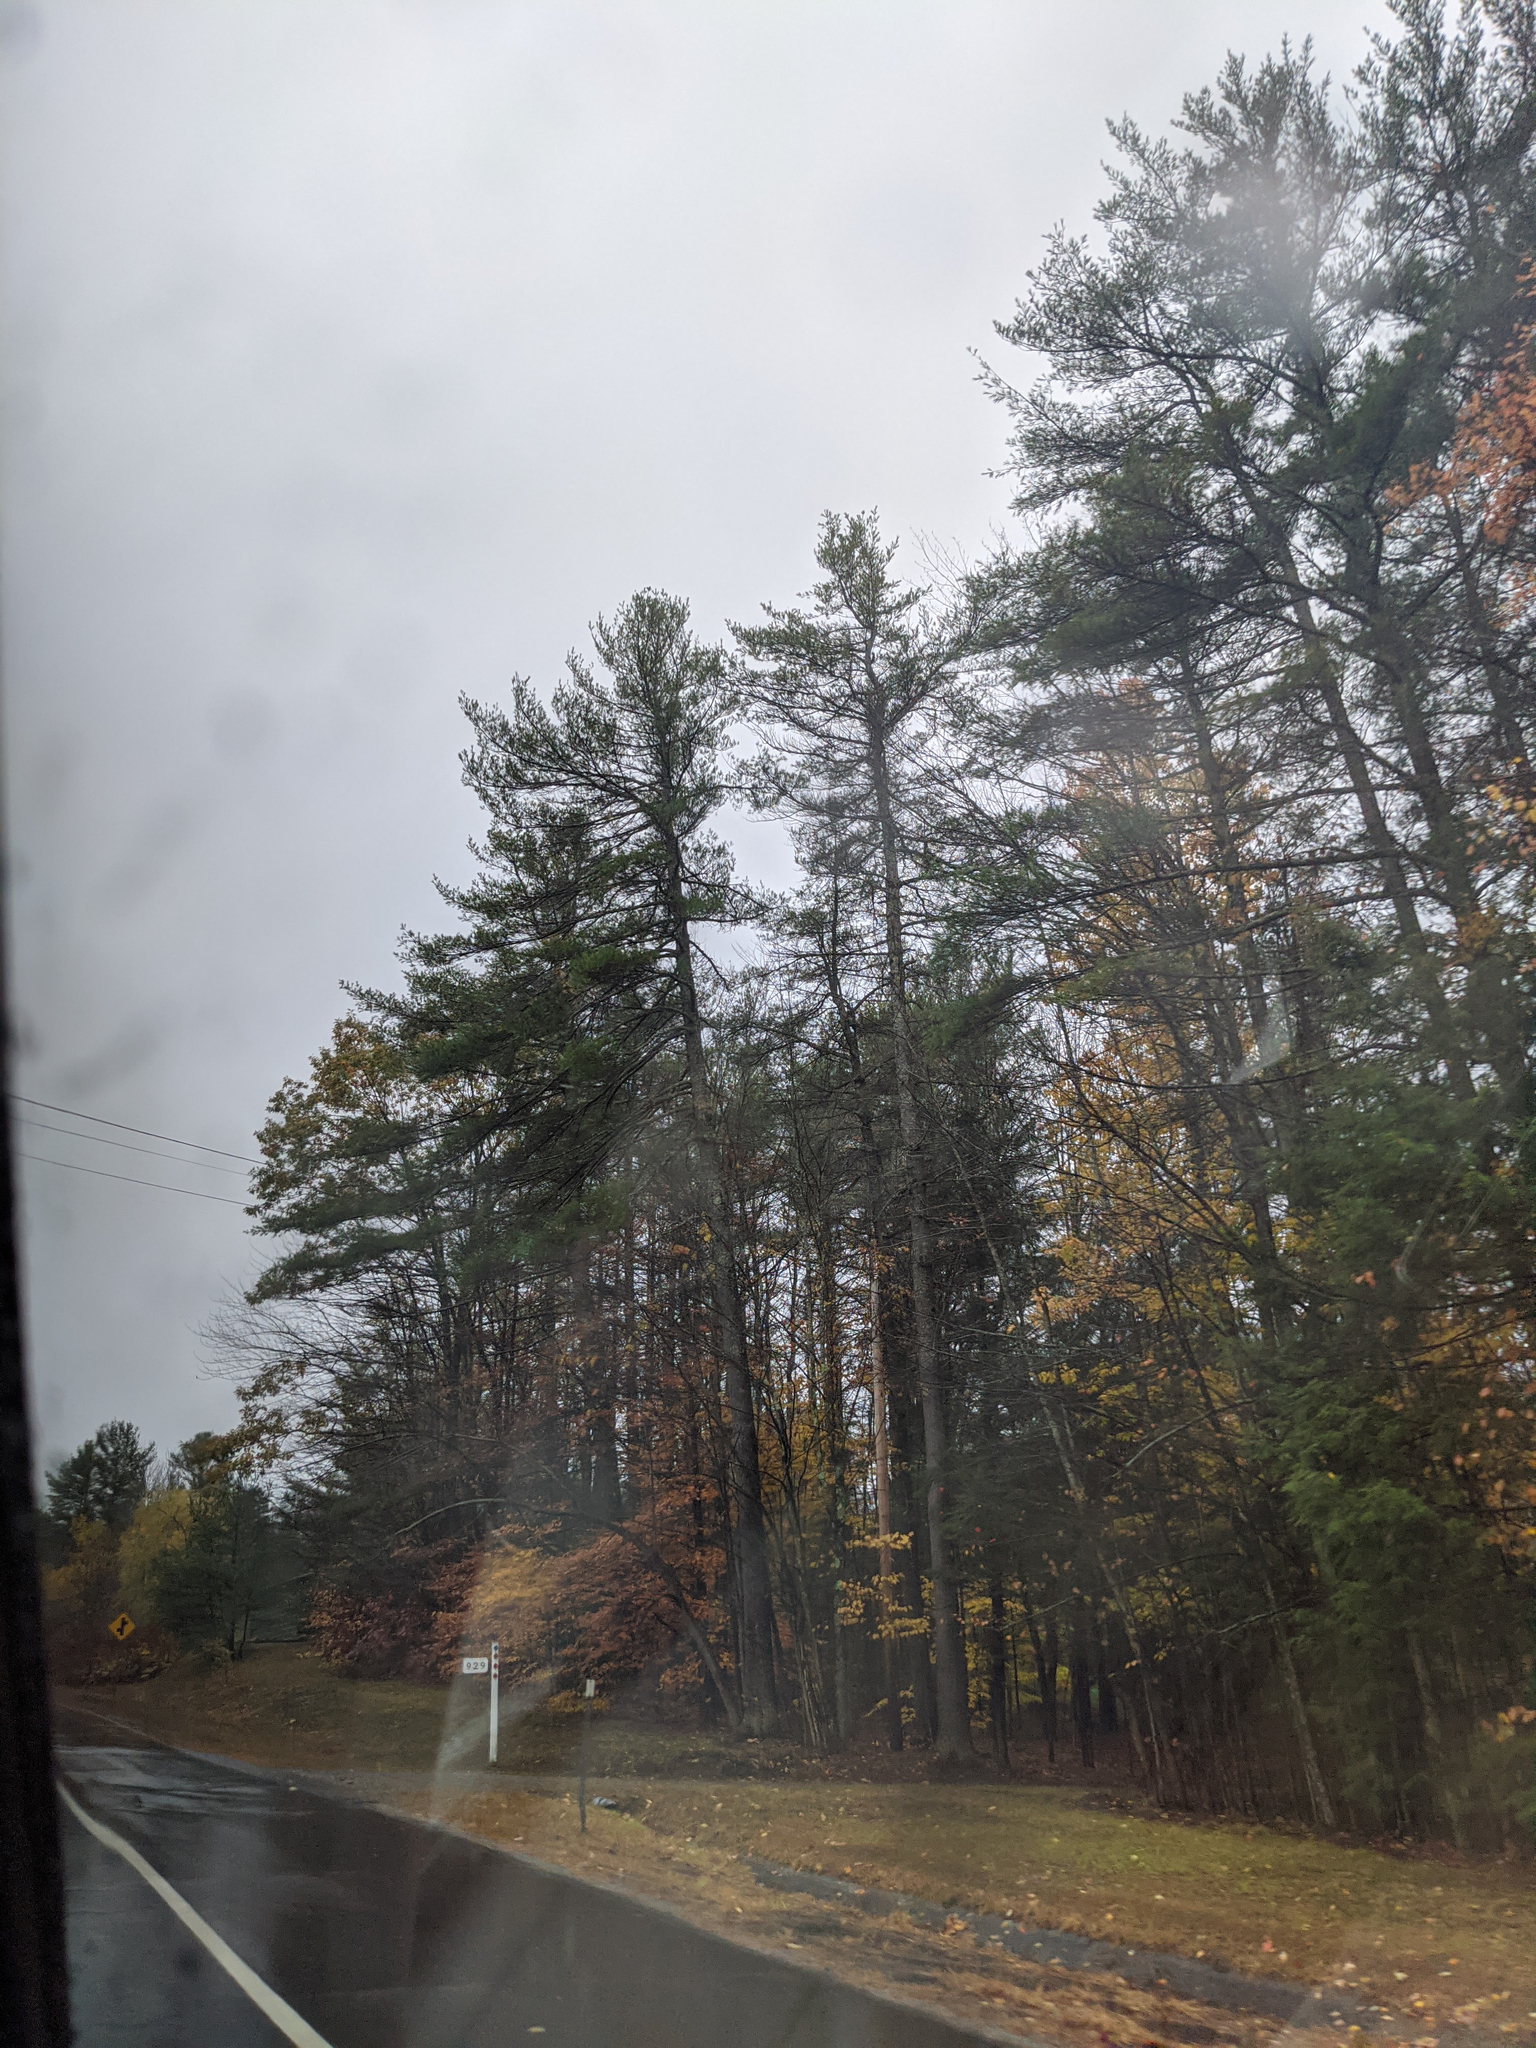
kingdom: Plantae
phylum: Tracheophyta
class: Pinopsida
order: Pinales
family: Pinaceae
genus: Pinus
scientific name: Pinus strobus
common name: Weymouth pine
